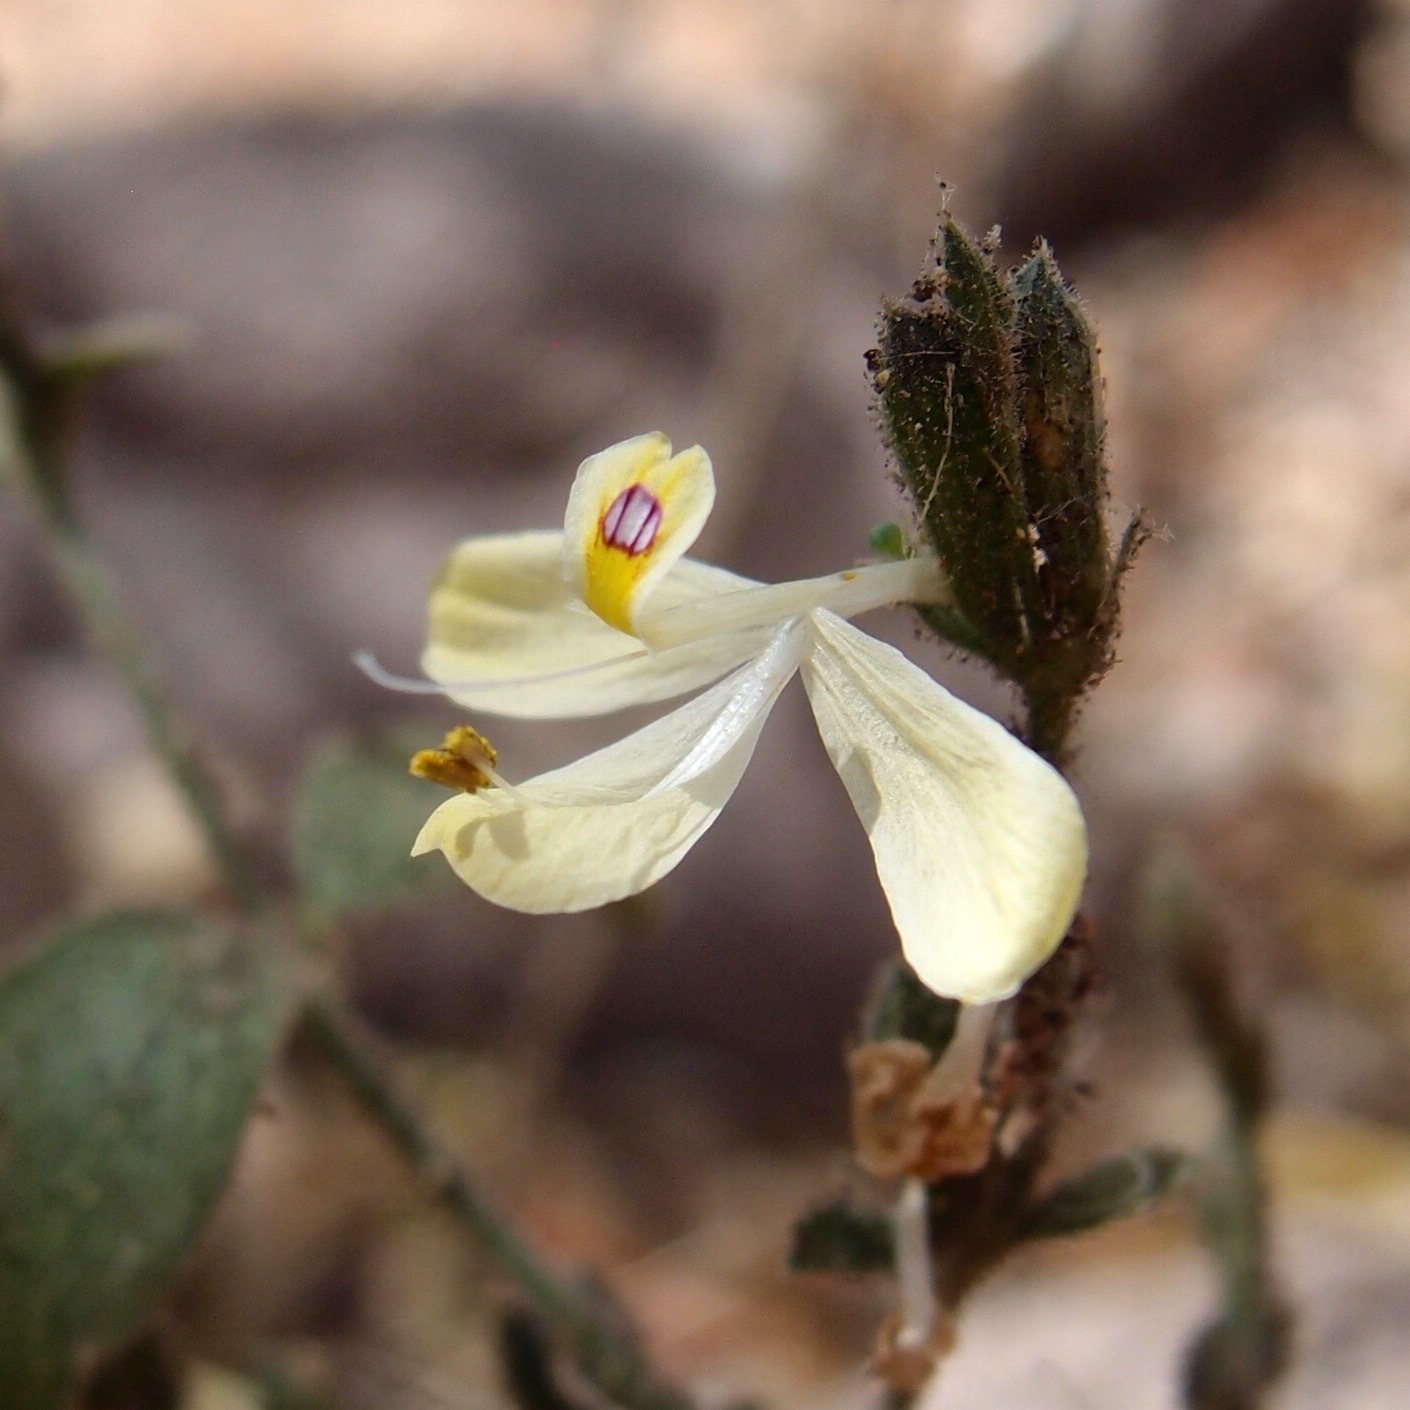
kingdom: Plantae
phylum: Tracheophyta
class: Magnoliopsida
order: Lamiales
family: Acanthaceae
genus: Henrya
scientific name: Henrya insularis
